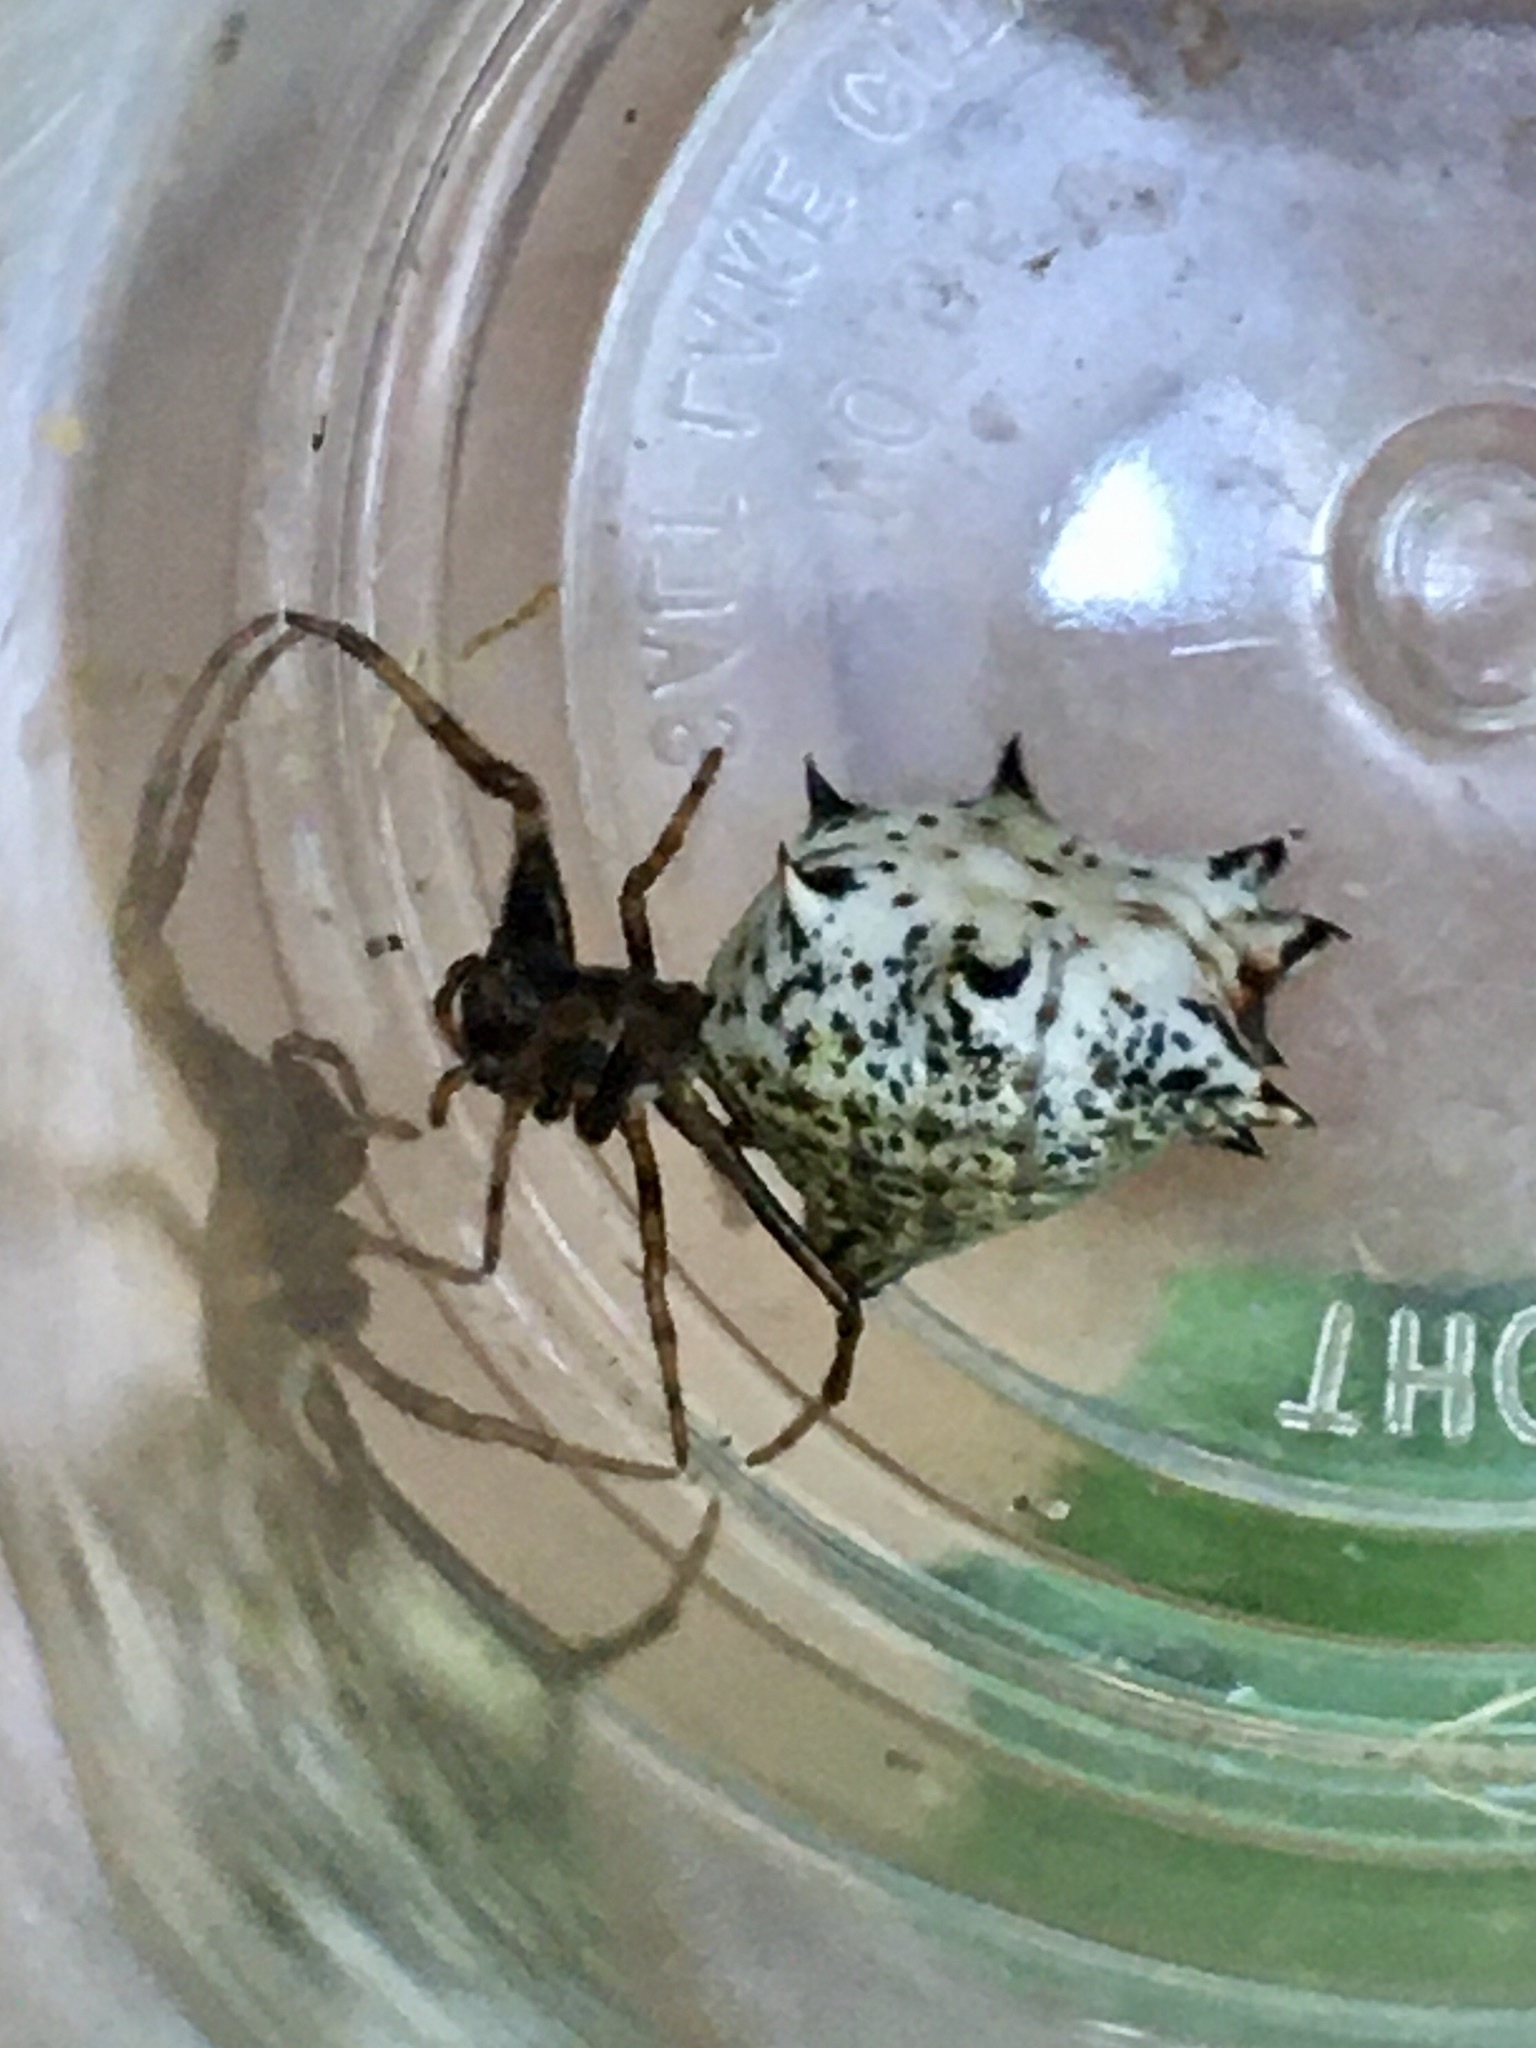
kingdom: Animalia
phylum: Arthropoda
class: Arachnida
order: Araneae
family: Araneidae
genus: Micrathena
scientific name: Micrathena gracilis
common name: Orb weavers
